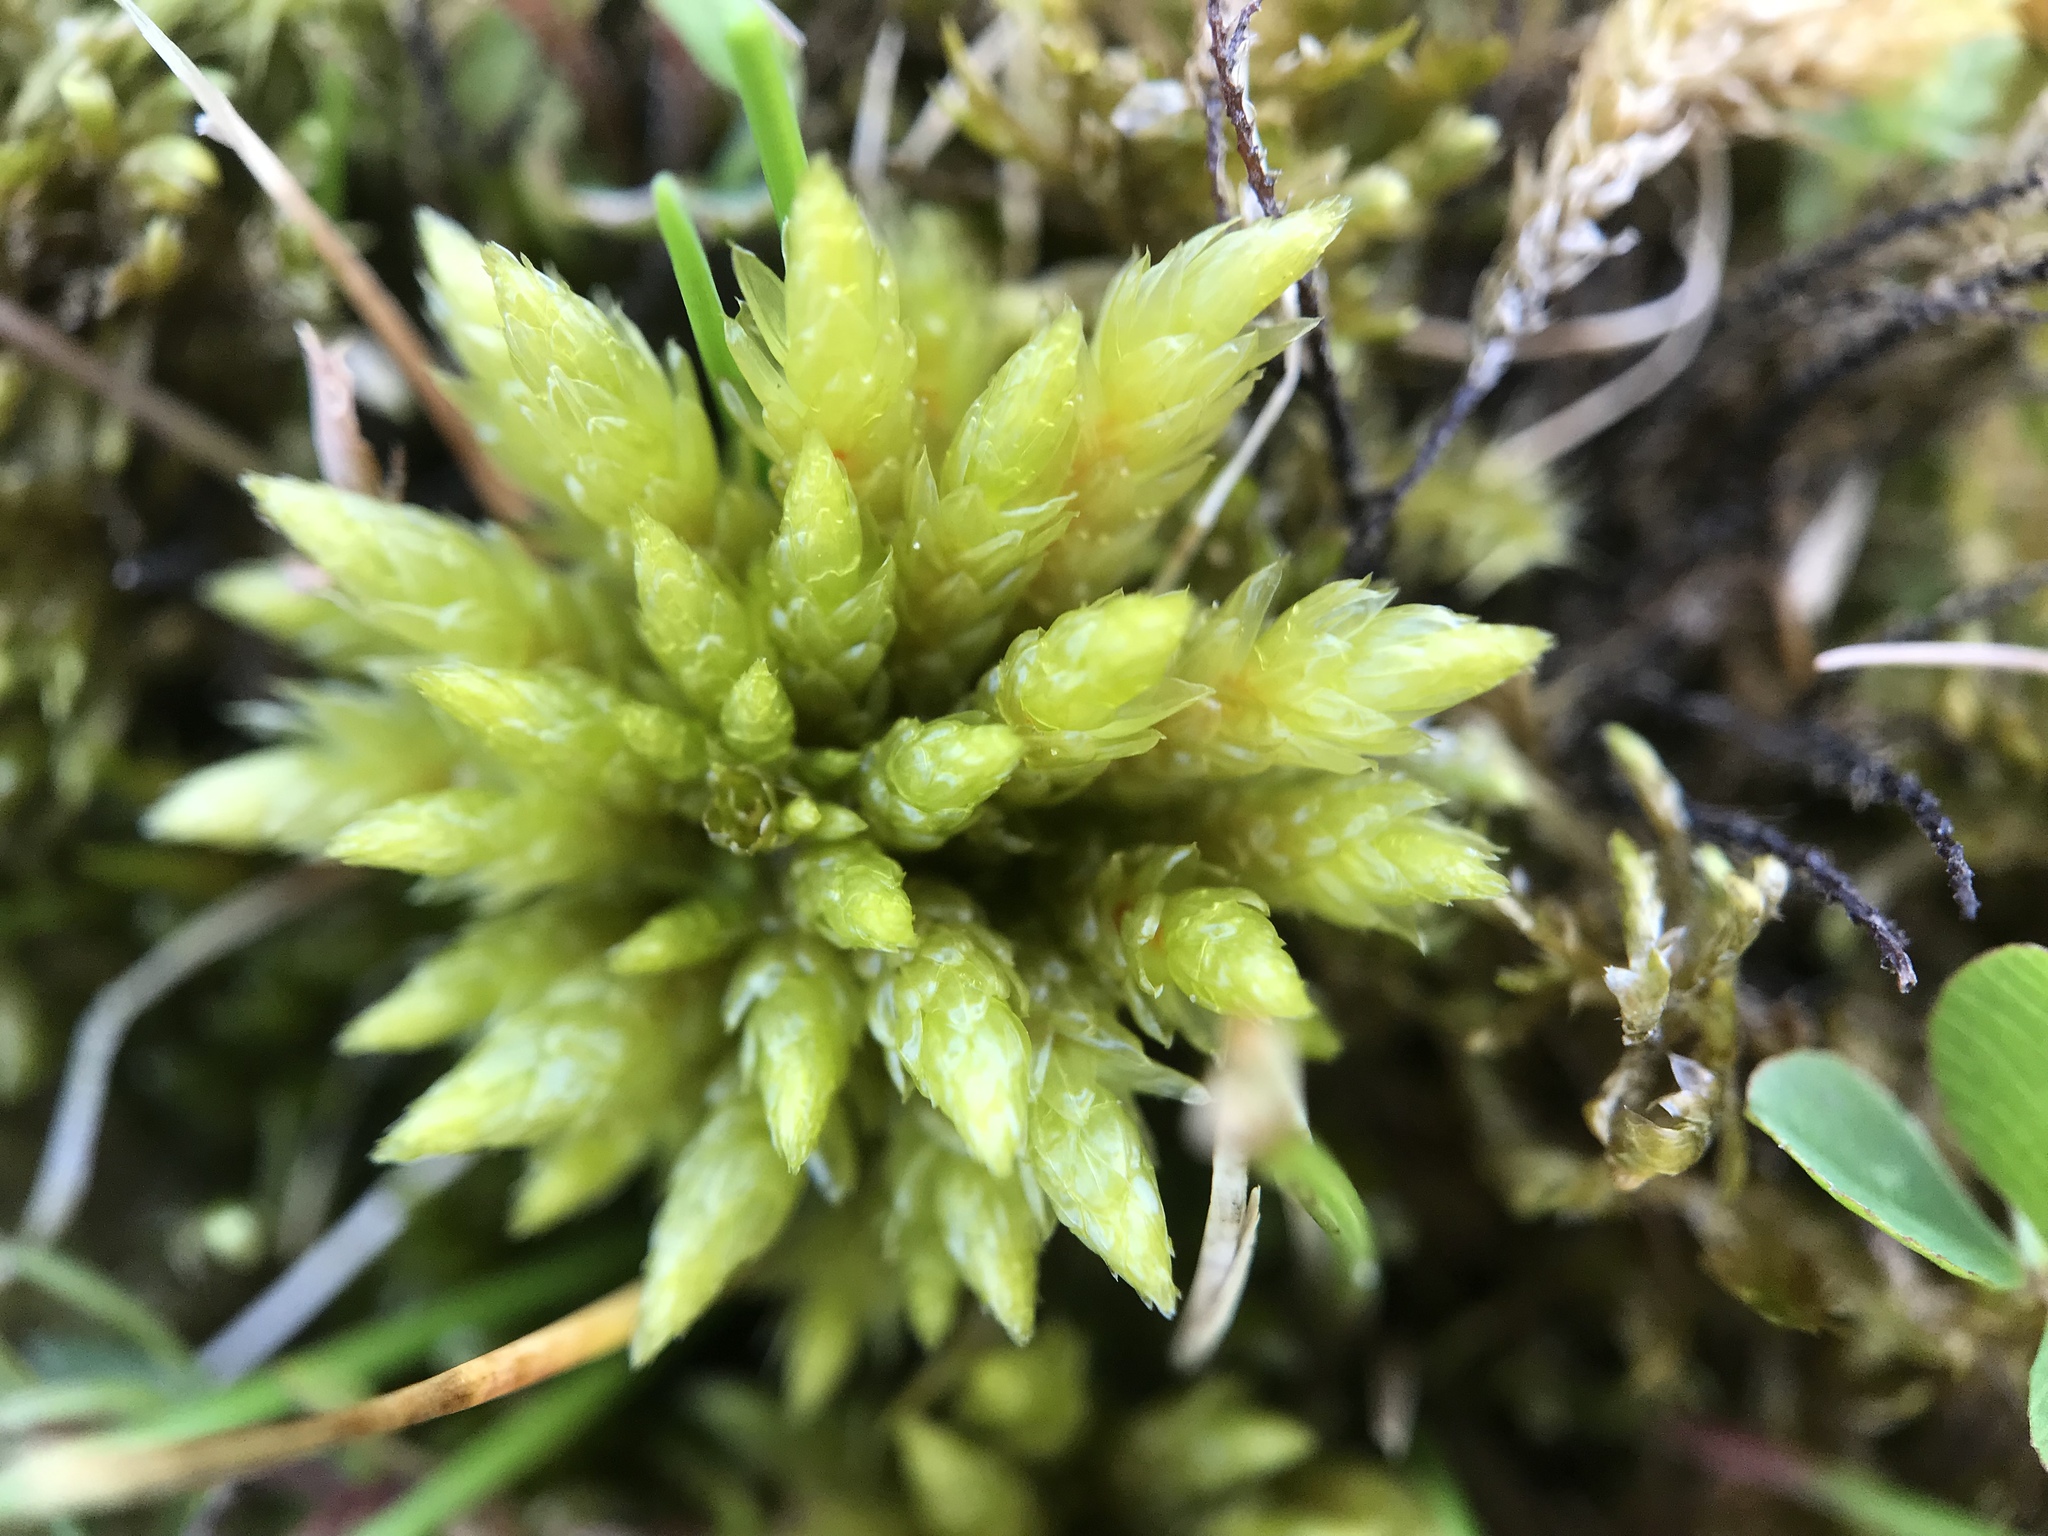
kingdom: Plantae
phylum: Bryophyta
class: Bryopsida
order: Hypnales
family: Climaciaceae
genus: Climacium
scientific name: Climacium dendroides
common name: Northern tree moss
